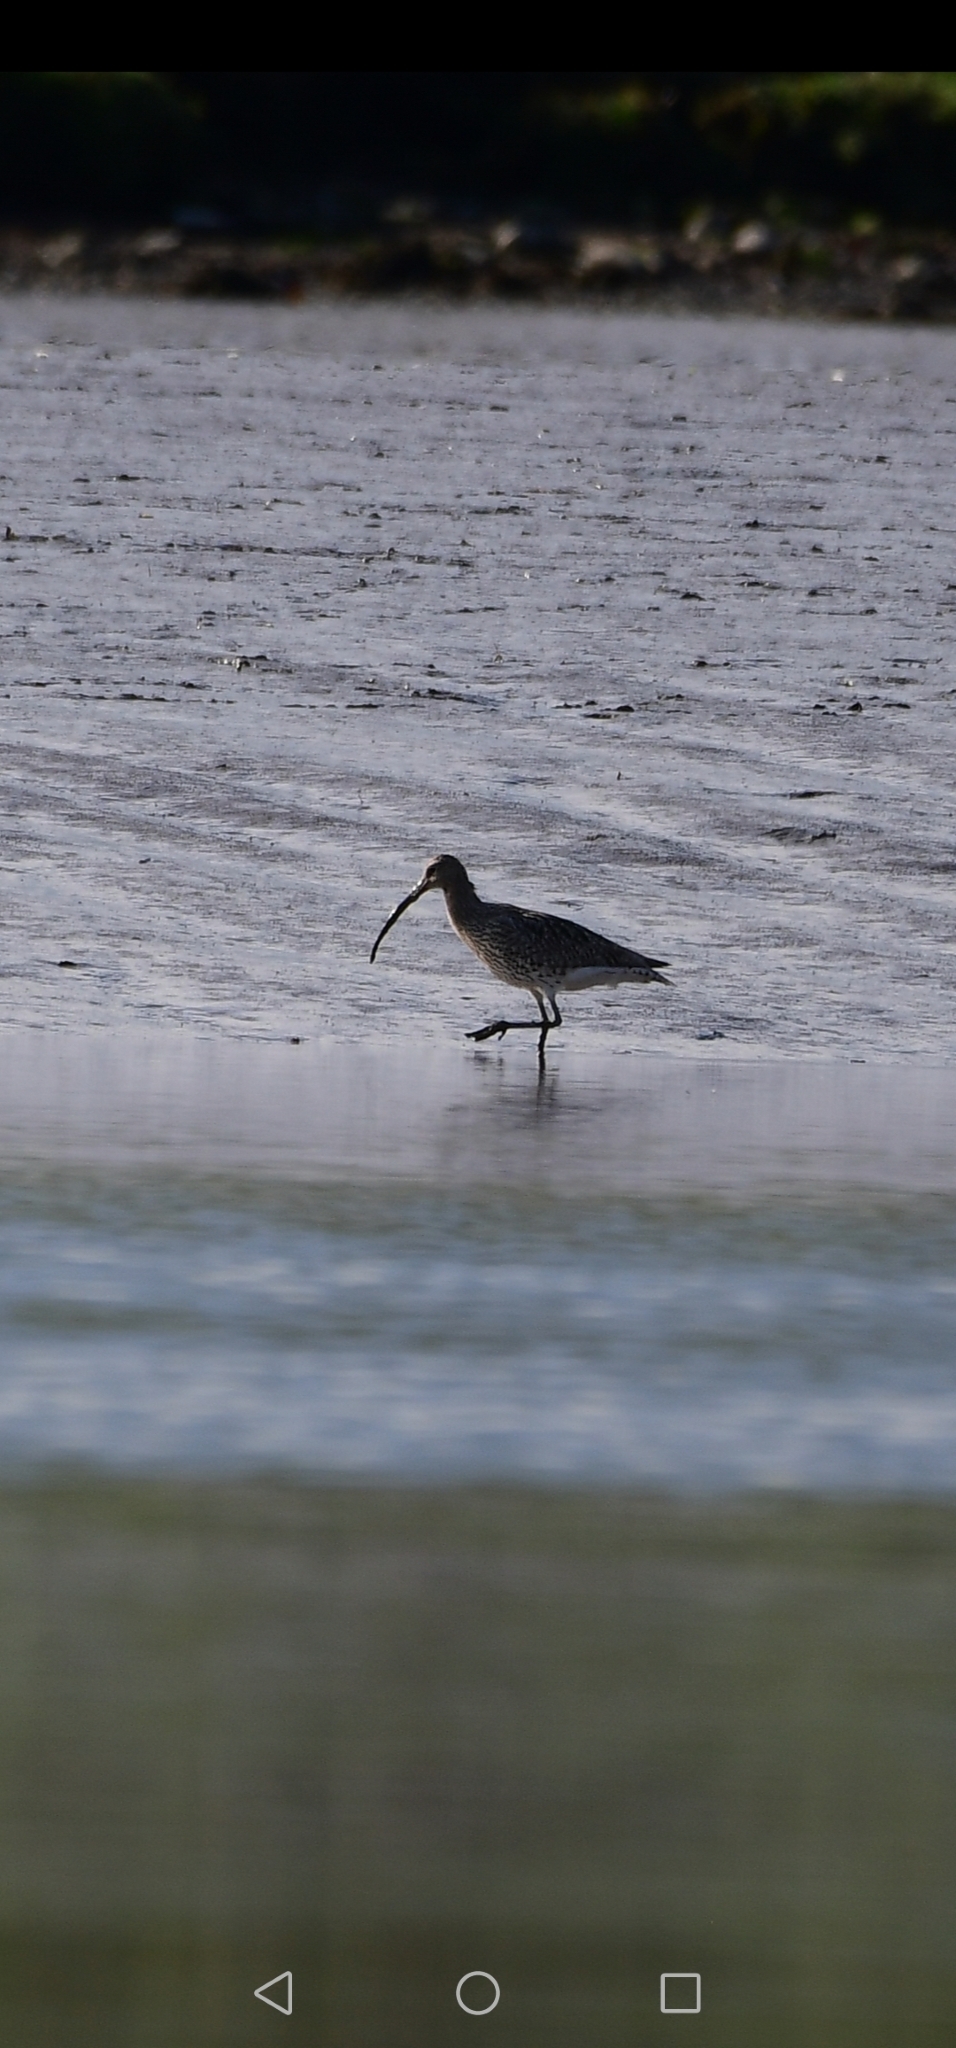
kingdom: Animalia
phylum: Chordata
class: Aves
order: Charadriiformes
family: Scolopacidae
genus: Numenius
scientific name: Numenius arquata
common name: Eurasian curlew
